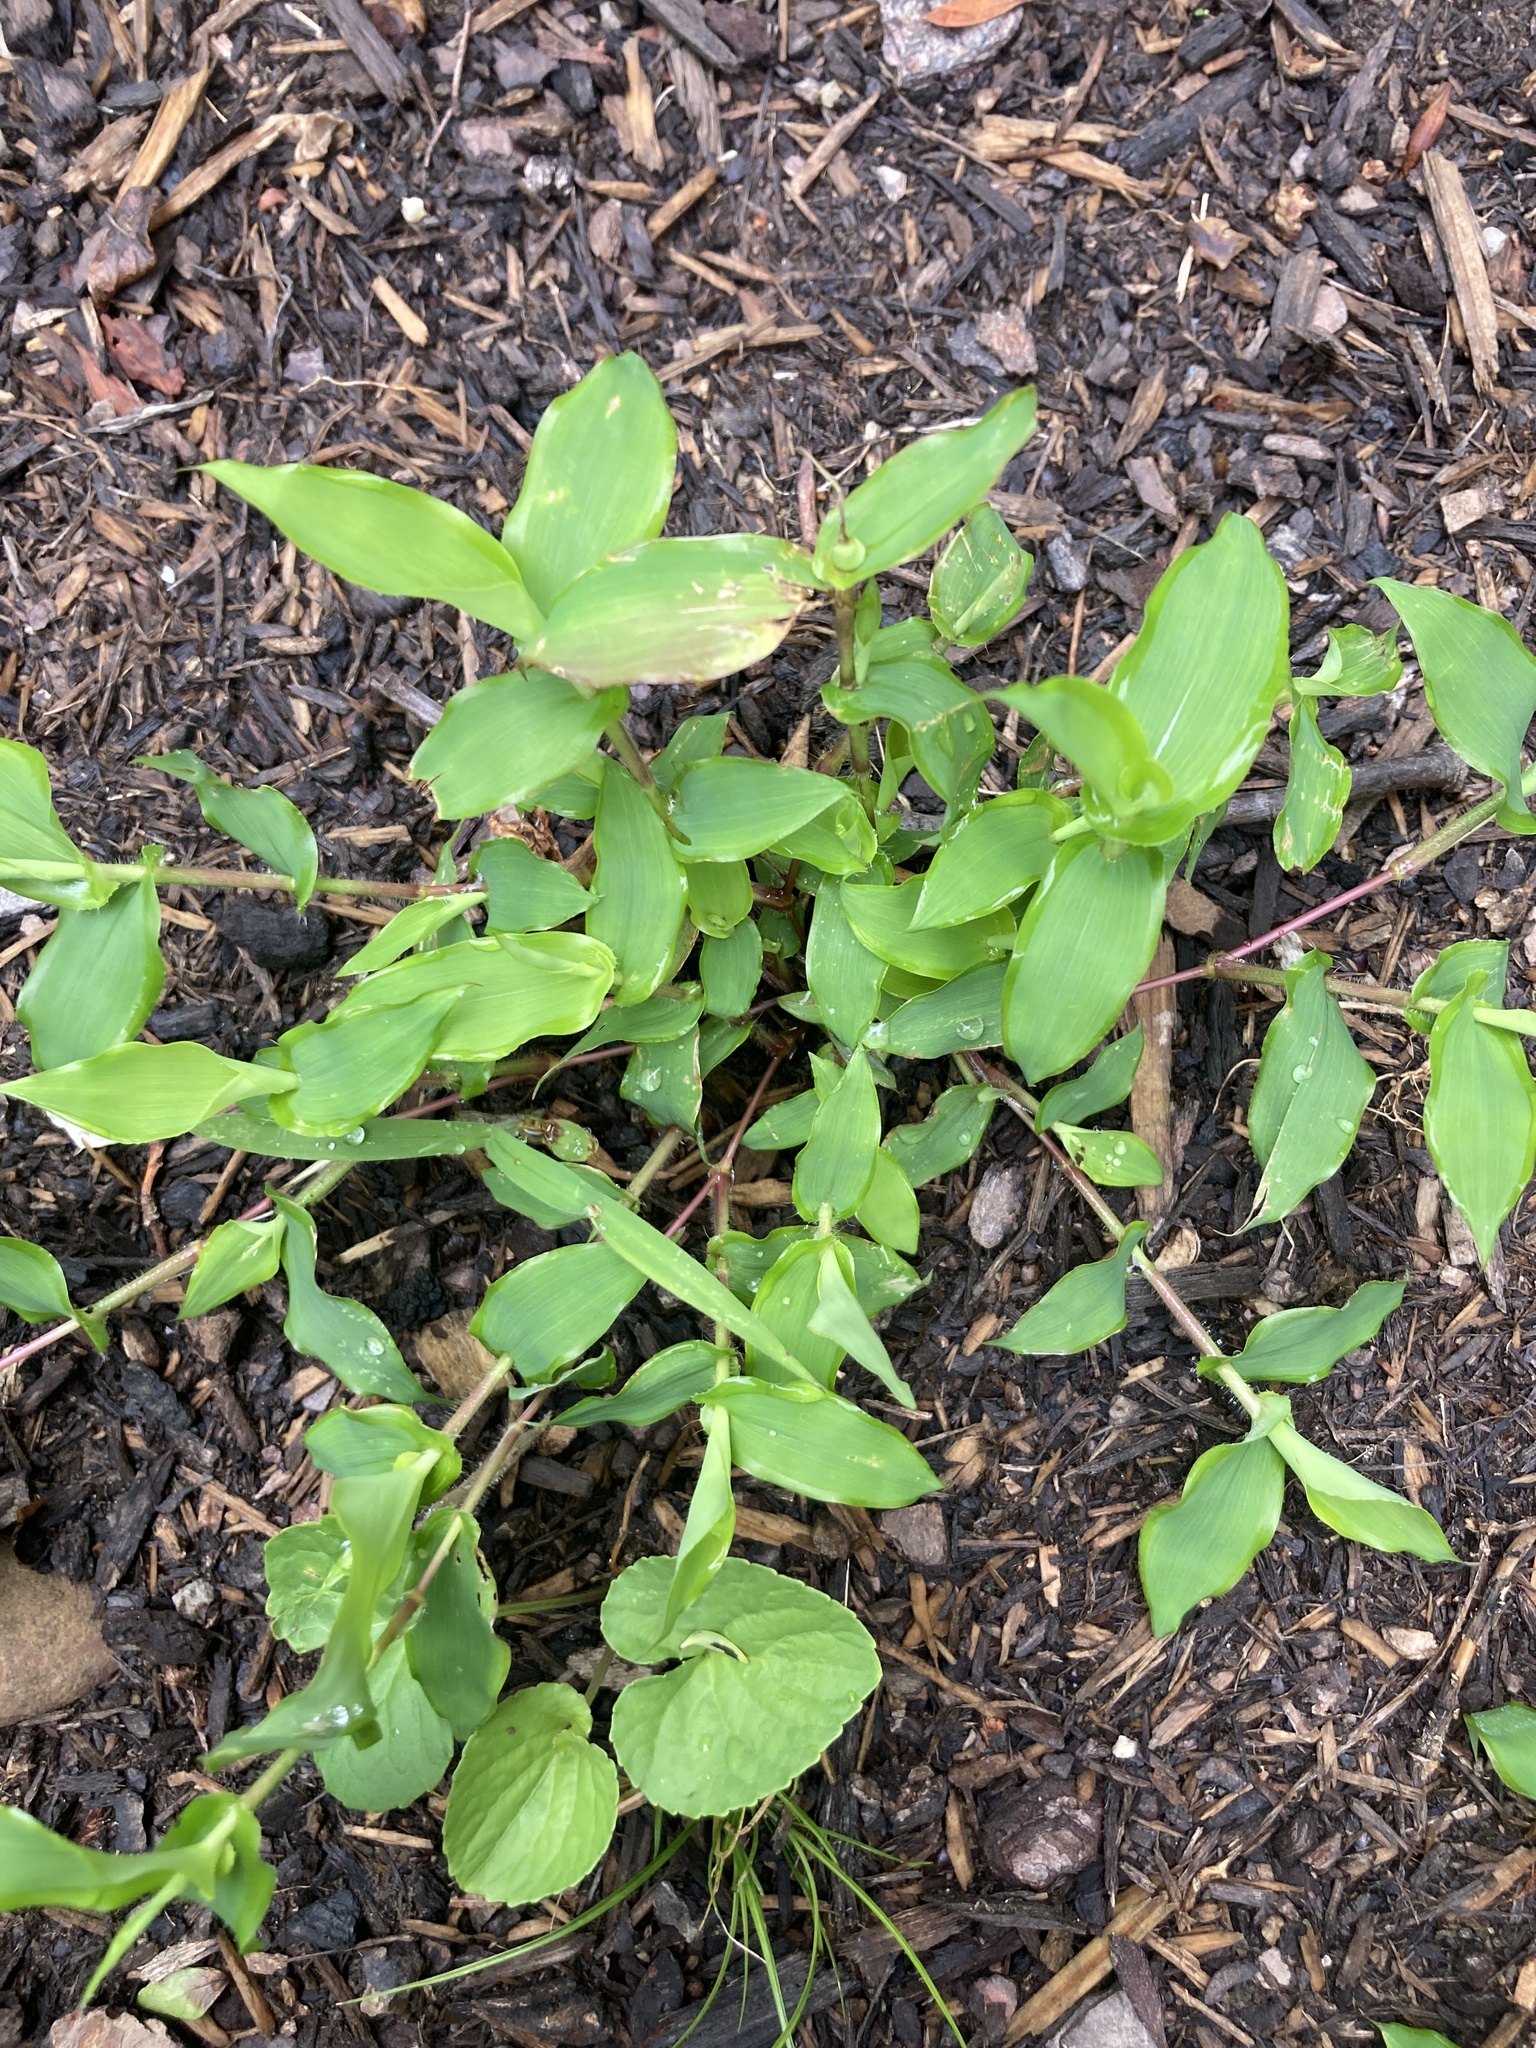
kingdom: Plantae
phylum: Tracheophyta
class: Liliopsida
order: Poales
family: Poaceae
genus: Arthraxon
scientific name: Arthraxon hispidus
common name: Small carpgrass
